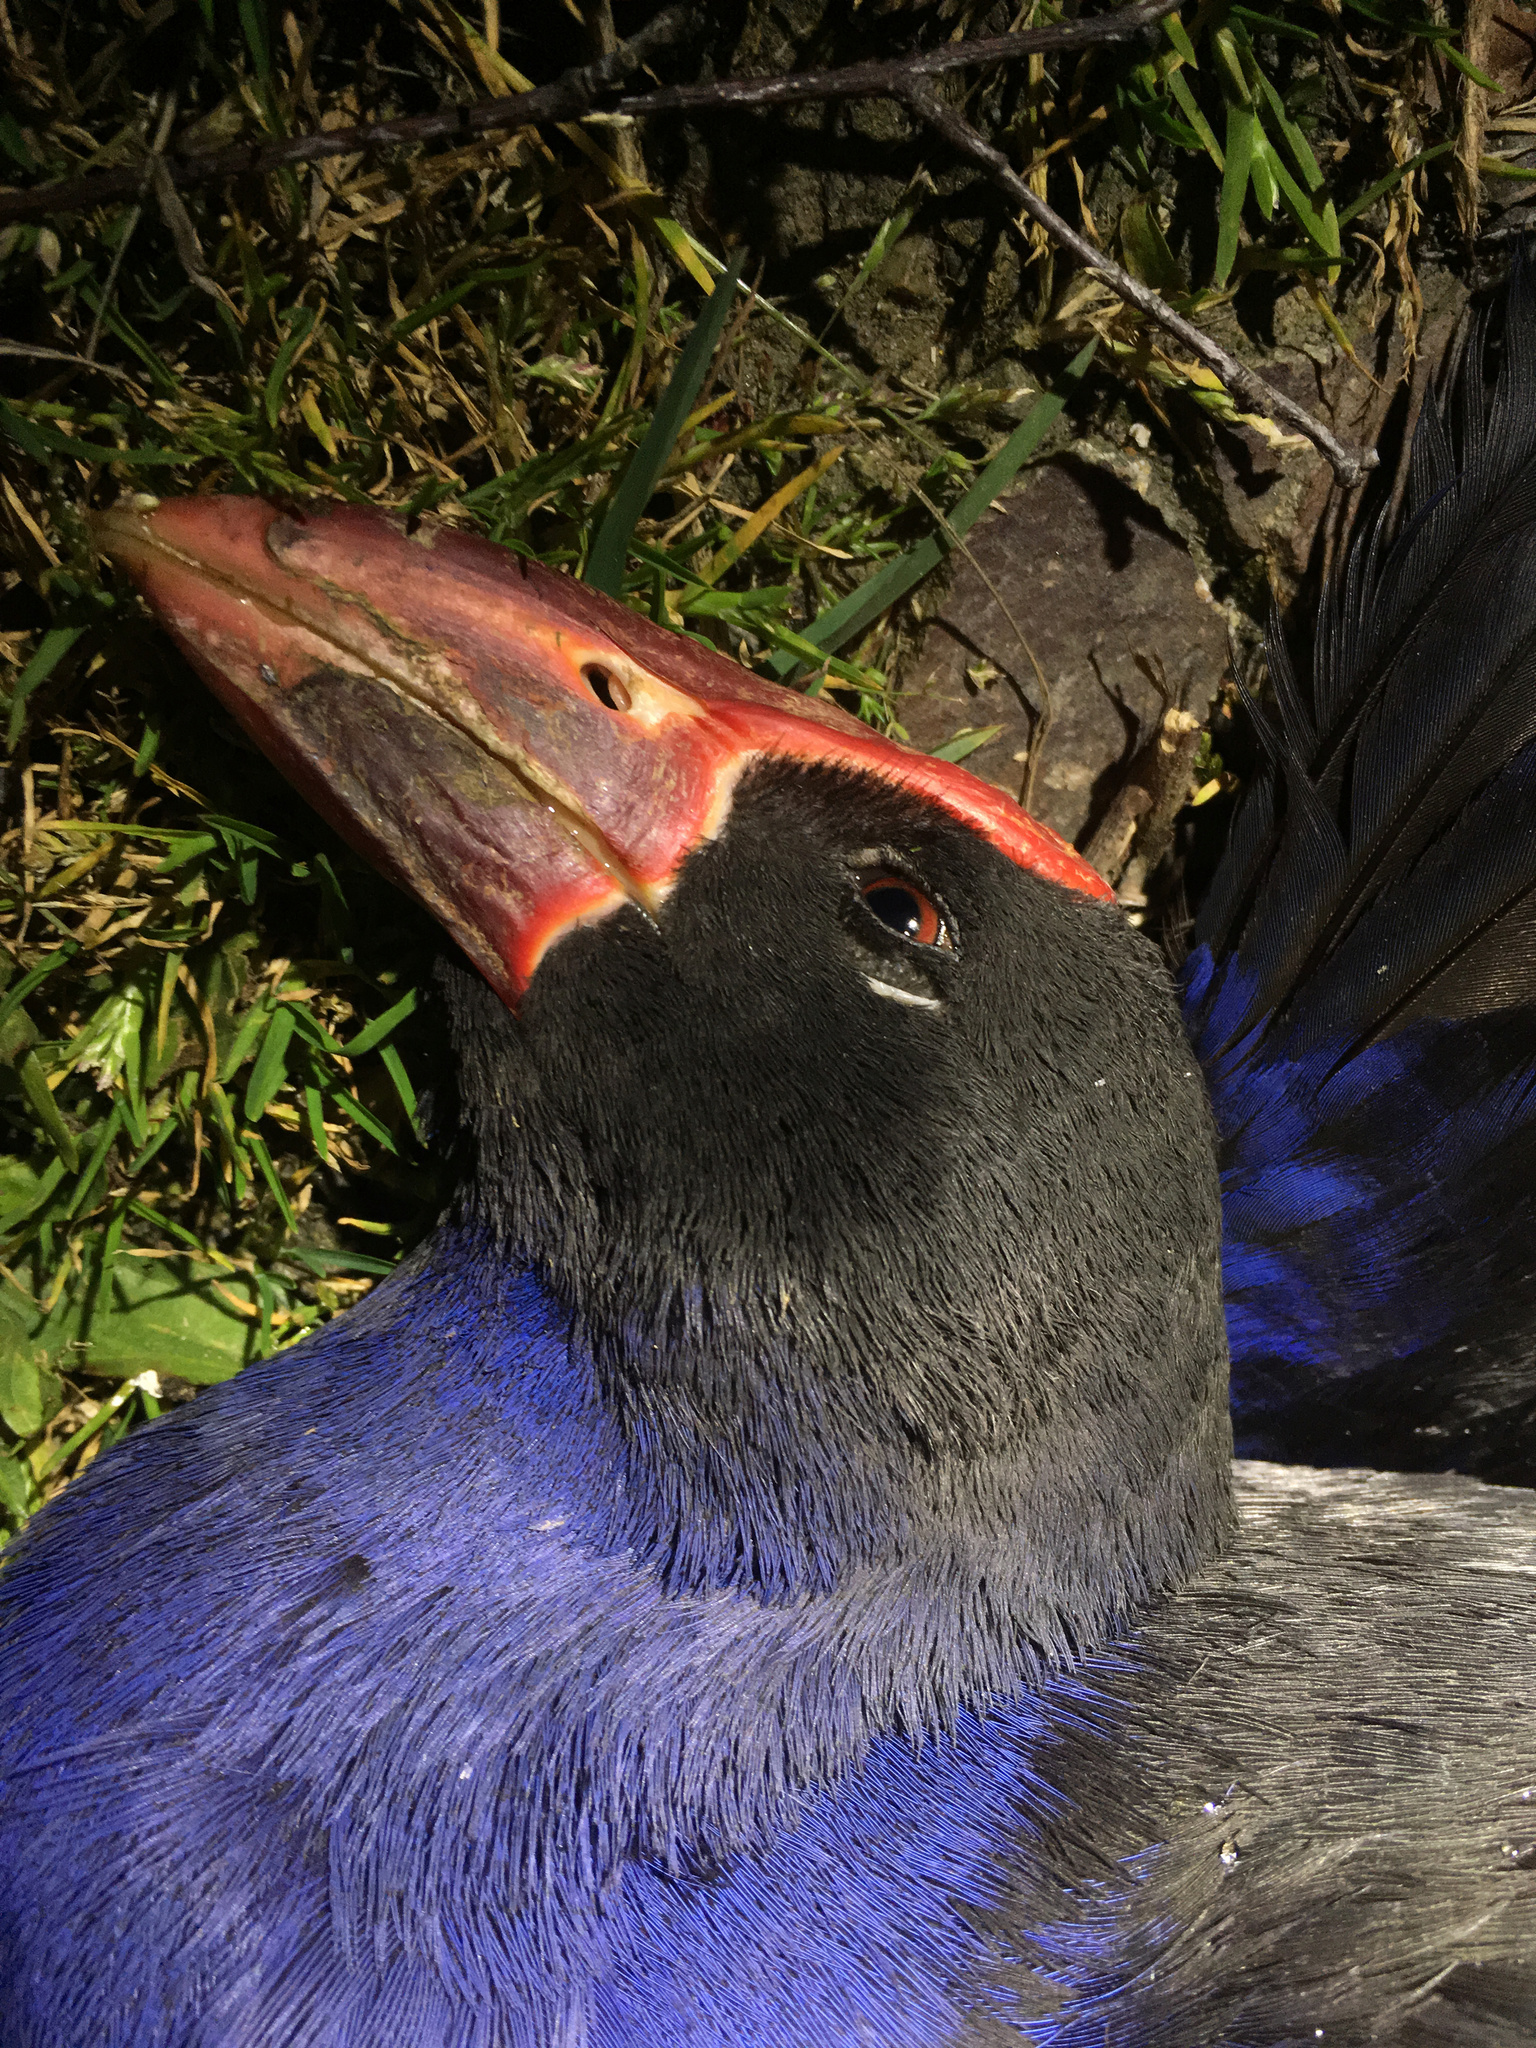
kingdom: Animalia
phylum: Chordata
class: Aves
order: Gruiformes
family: Rallidae
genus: Porphyrio
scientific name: Porphyrio melanotus
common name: Australasian swamphen
